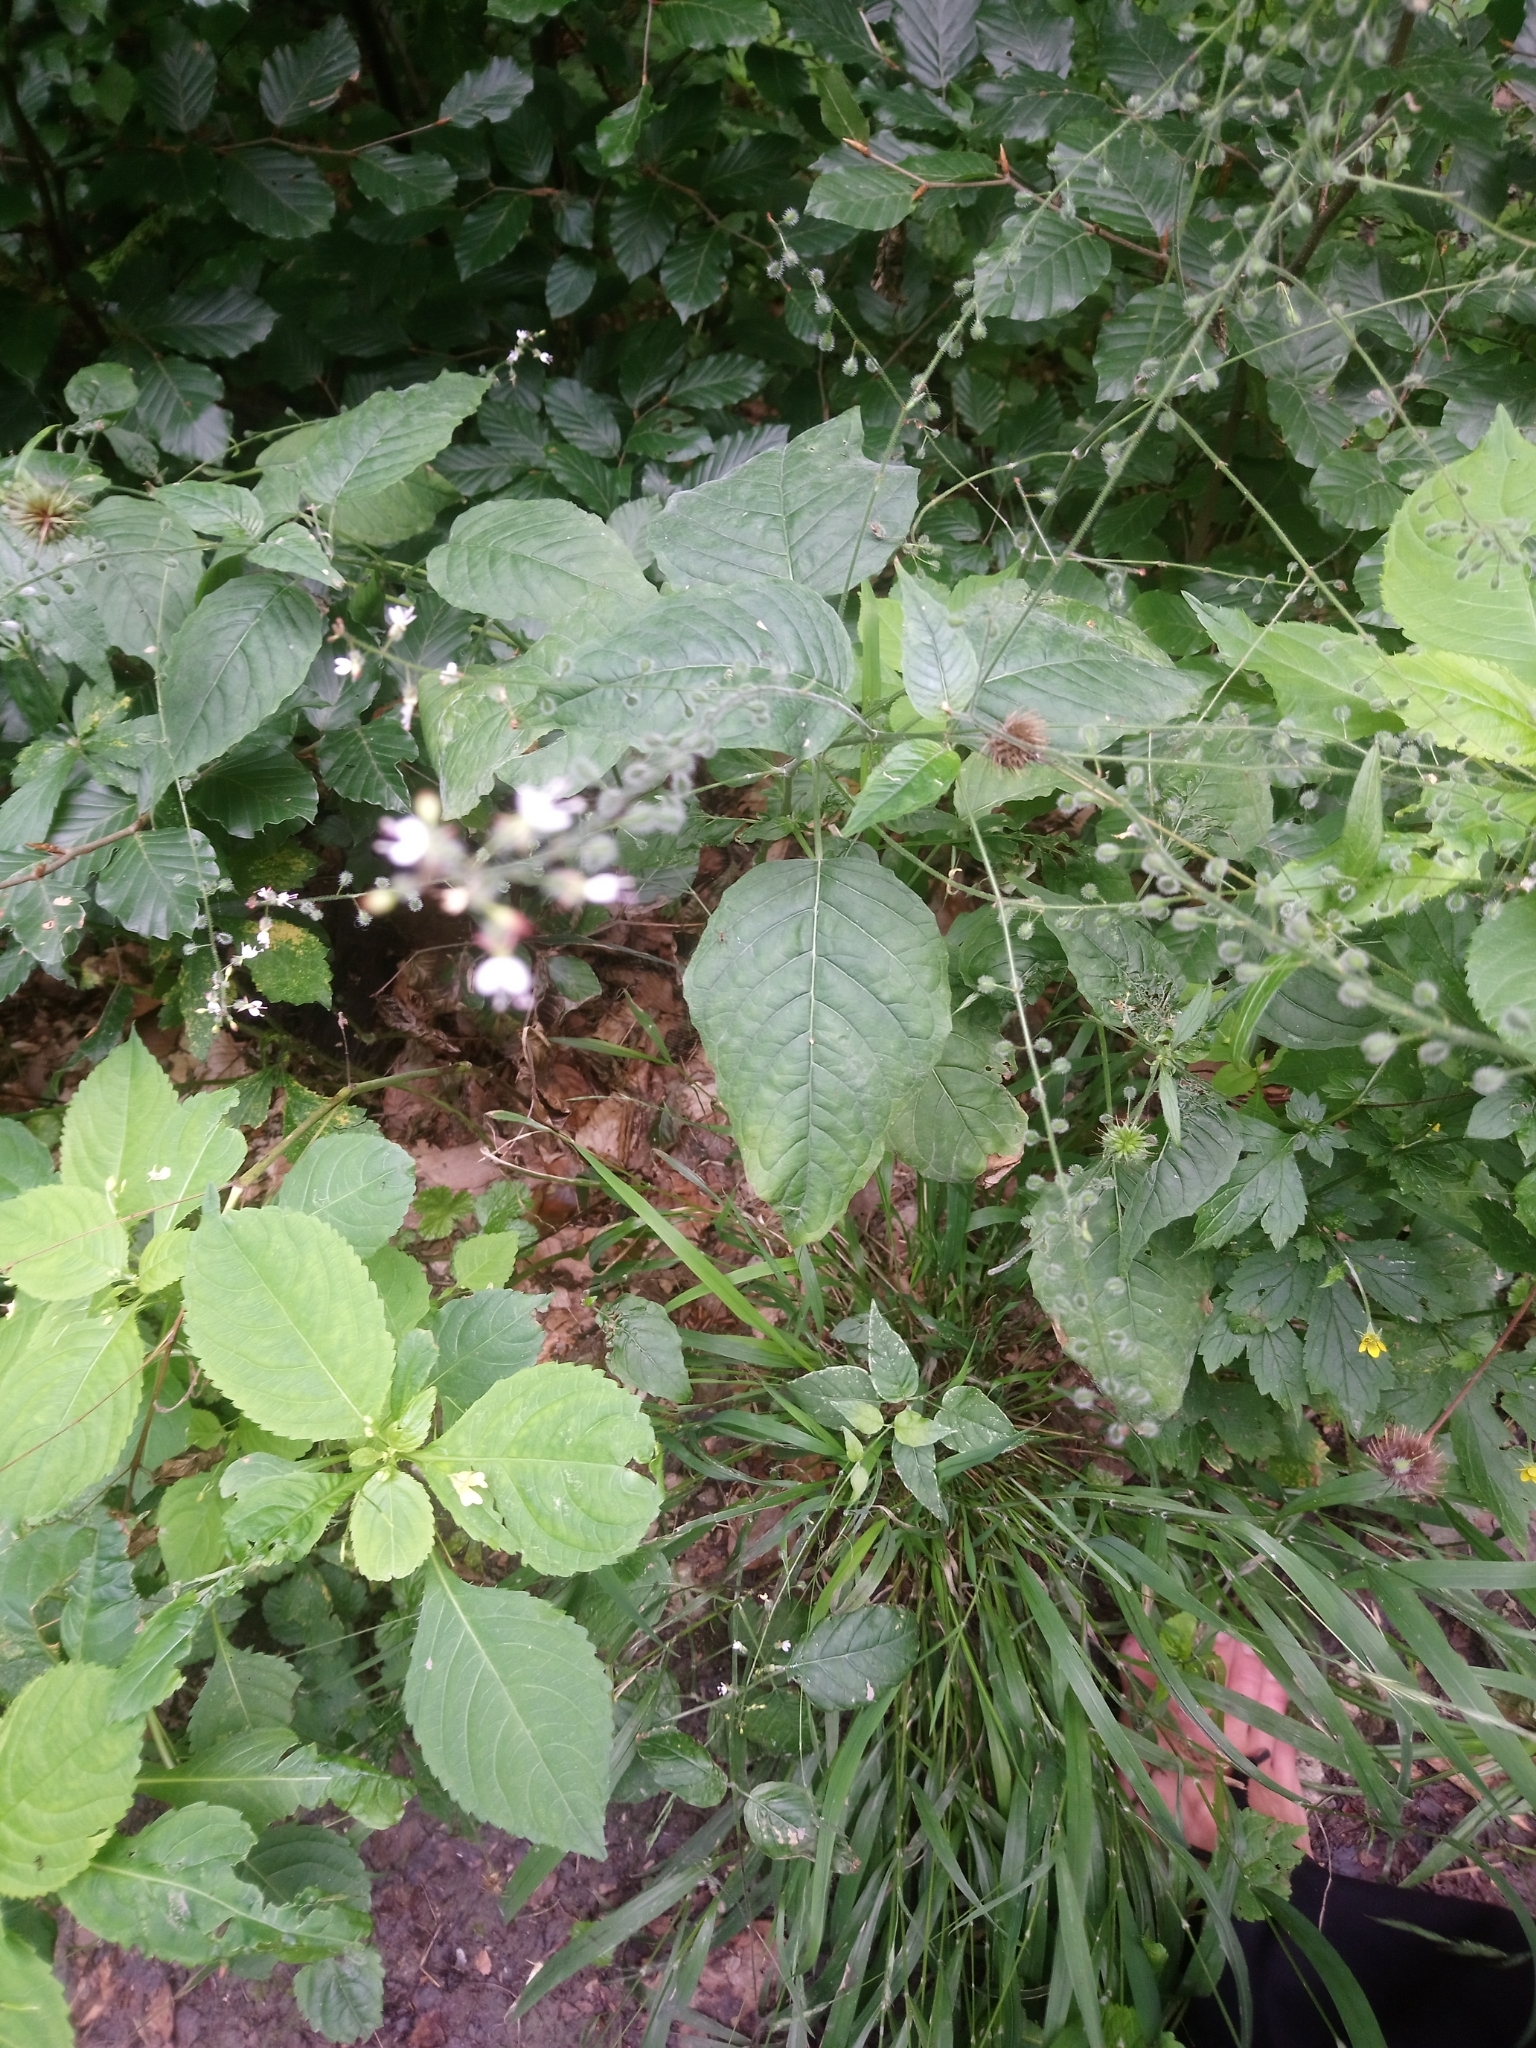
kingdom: Plantae
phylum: Tracheophyta
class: Magnoliopsida
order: Myrtales
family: Onagraceae
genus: Circaea
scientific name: Circaea lutetiana
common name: Enchanter's-nightshade
